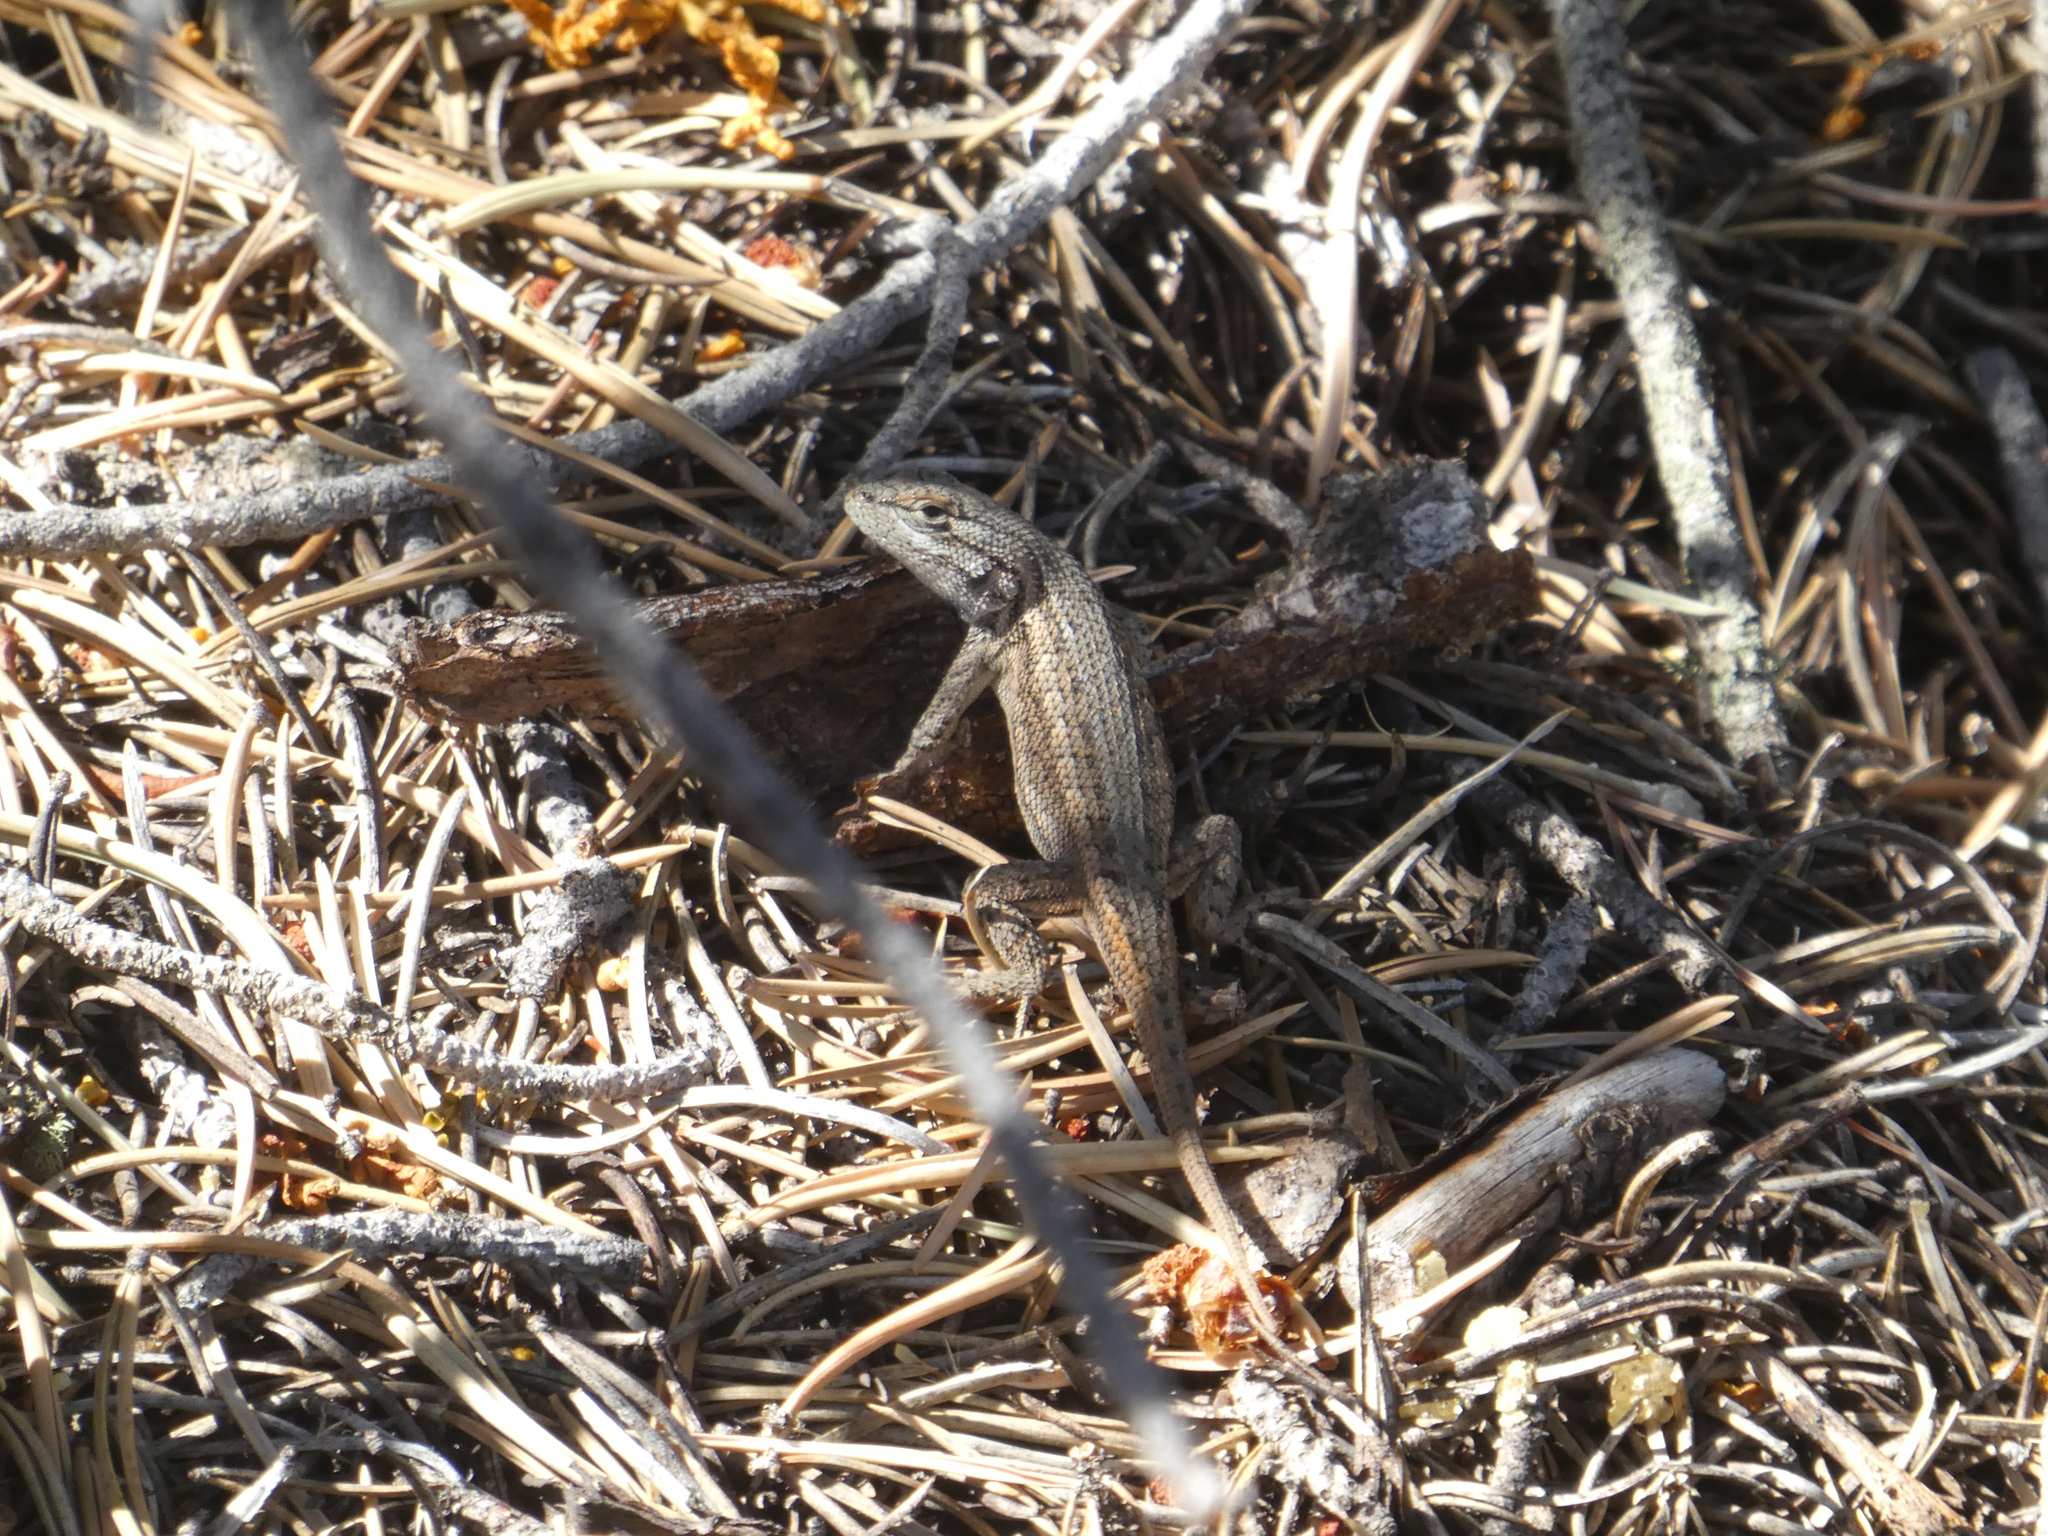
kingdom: Animalia
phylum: Chordata
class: Squamata
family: Phrynosomatidae
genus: Sceloporus
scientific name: Sceloporus tristichus
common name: Plateau fence lizard
